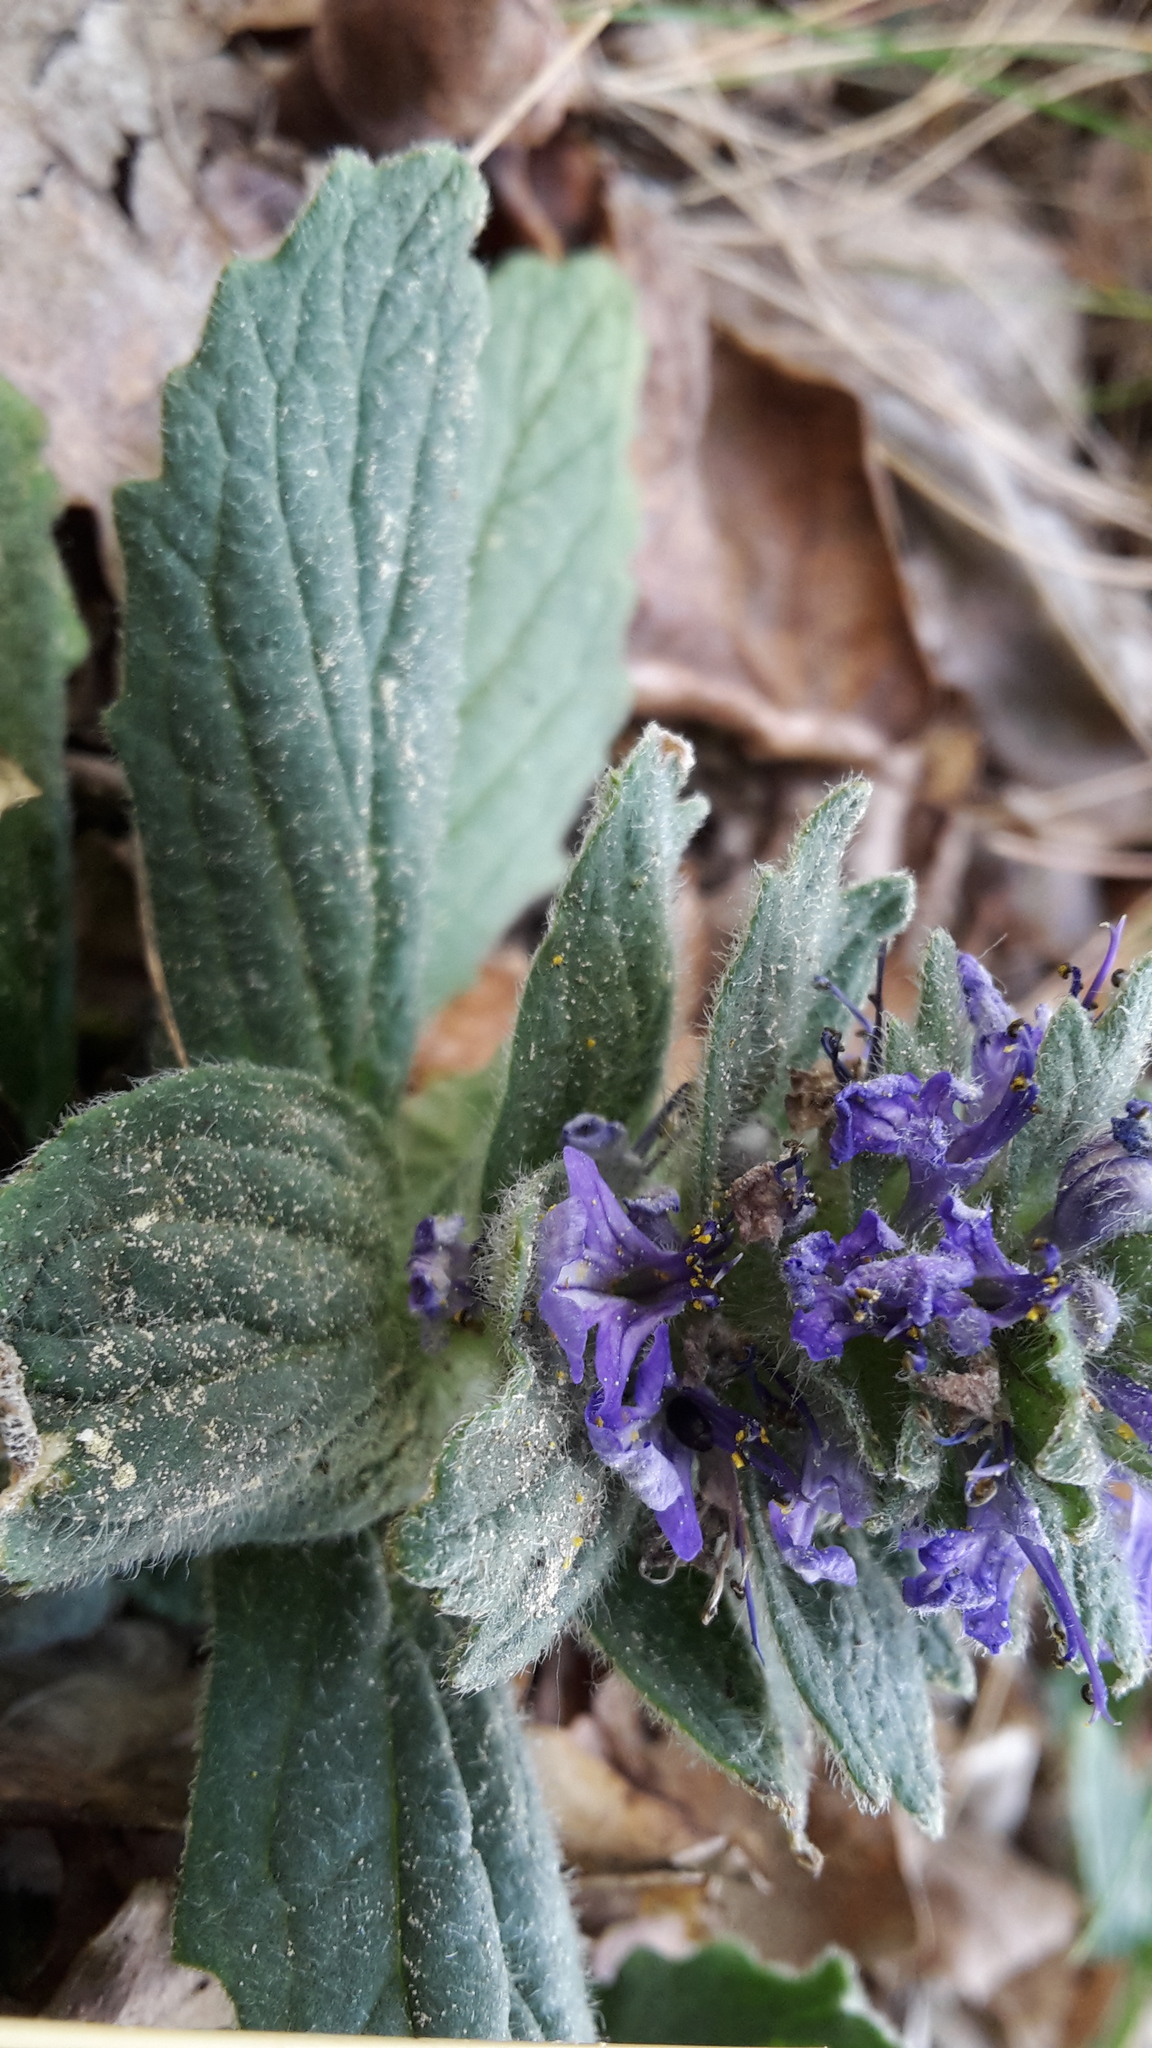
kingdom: Plantae
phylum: Tracheophyta
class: Magnoliopsida
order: Lamiales
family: Lamiaceae
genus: Ajuga
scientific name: Ajuga genevensis
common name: Blue bugle
